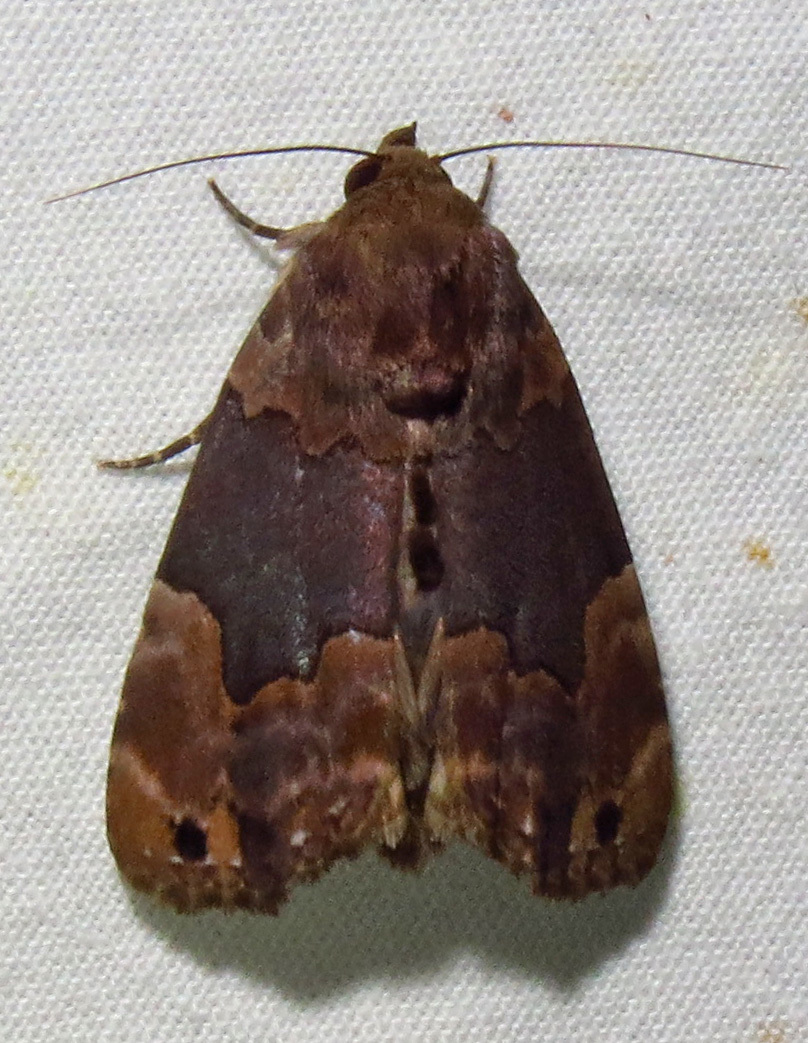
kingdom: Animalia
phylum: Arthropoda
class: Insecta
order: Lepidoptera
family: Erebidae
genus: Dinumma
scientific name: Dinumma deponens
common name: Purplish moth
